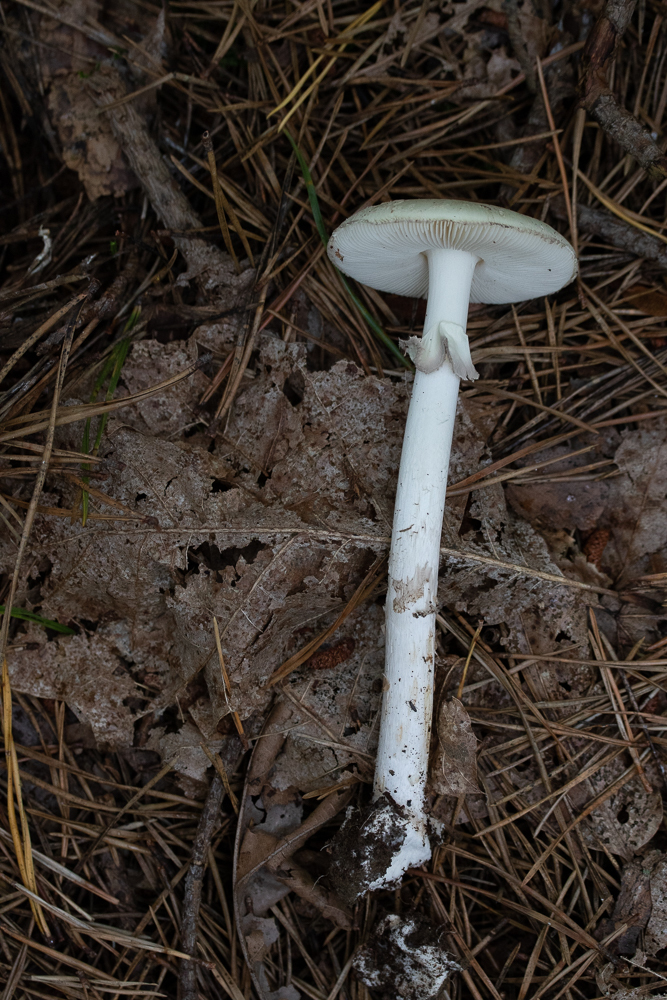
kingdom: Fungi
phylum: Basidiomycota
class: Agaricomycetes
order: Agaricales
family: Amanitaceae
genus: Amanita
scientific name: Amanita lavendula
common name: Coker's lavender staining amanita
